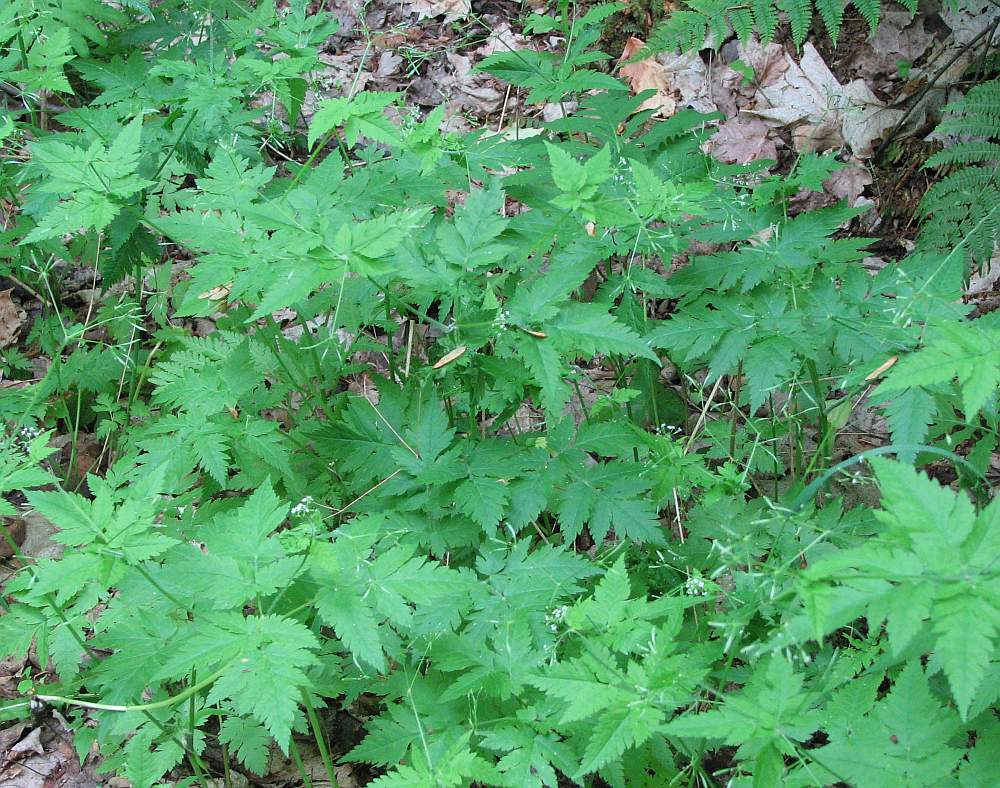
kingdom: Plantae
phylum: Tracheophyta
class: Magnoliopsida
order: Apiales
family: Apiaceae
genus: Osmorhiza
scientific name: Osmorhiza claytonii
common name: Hairy sweet cicely
